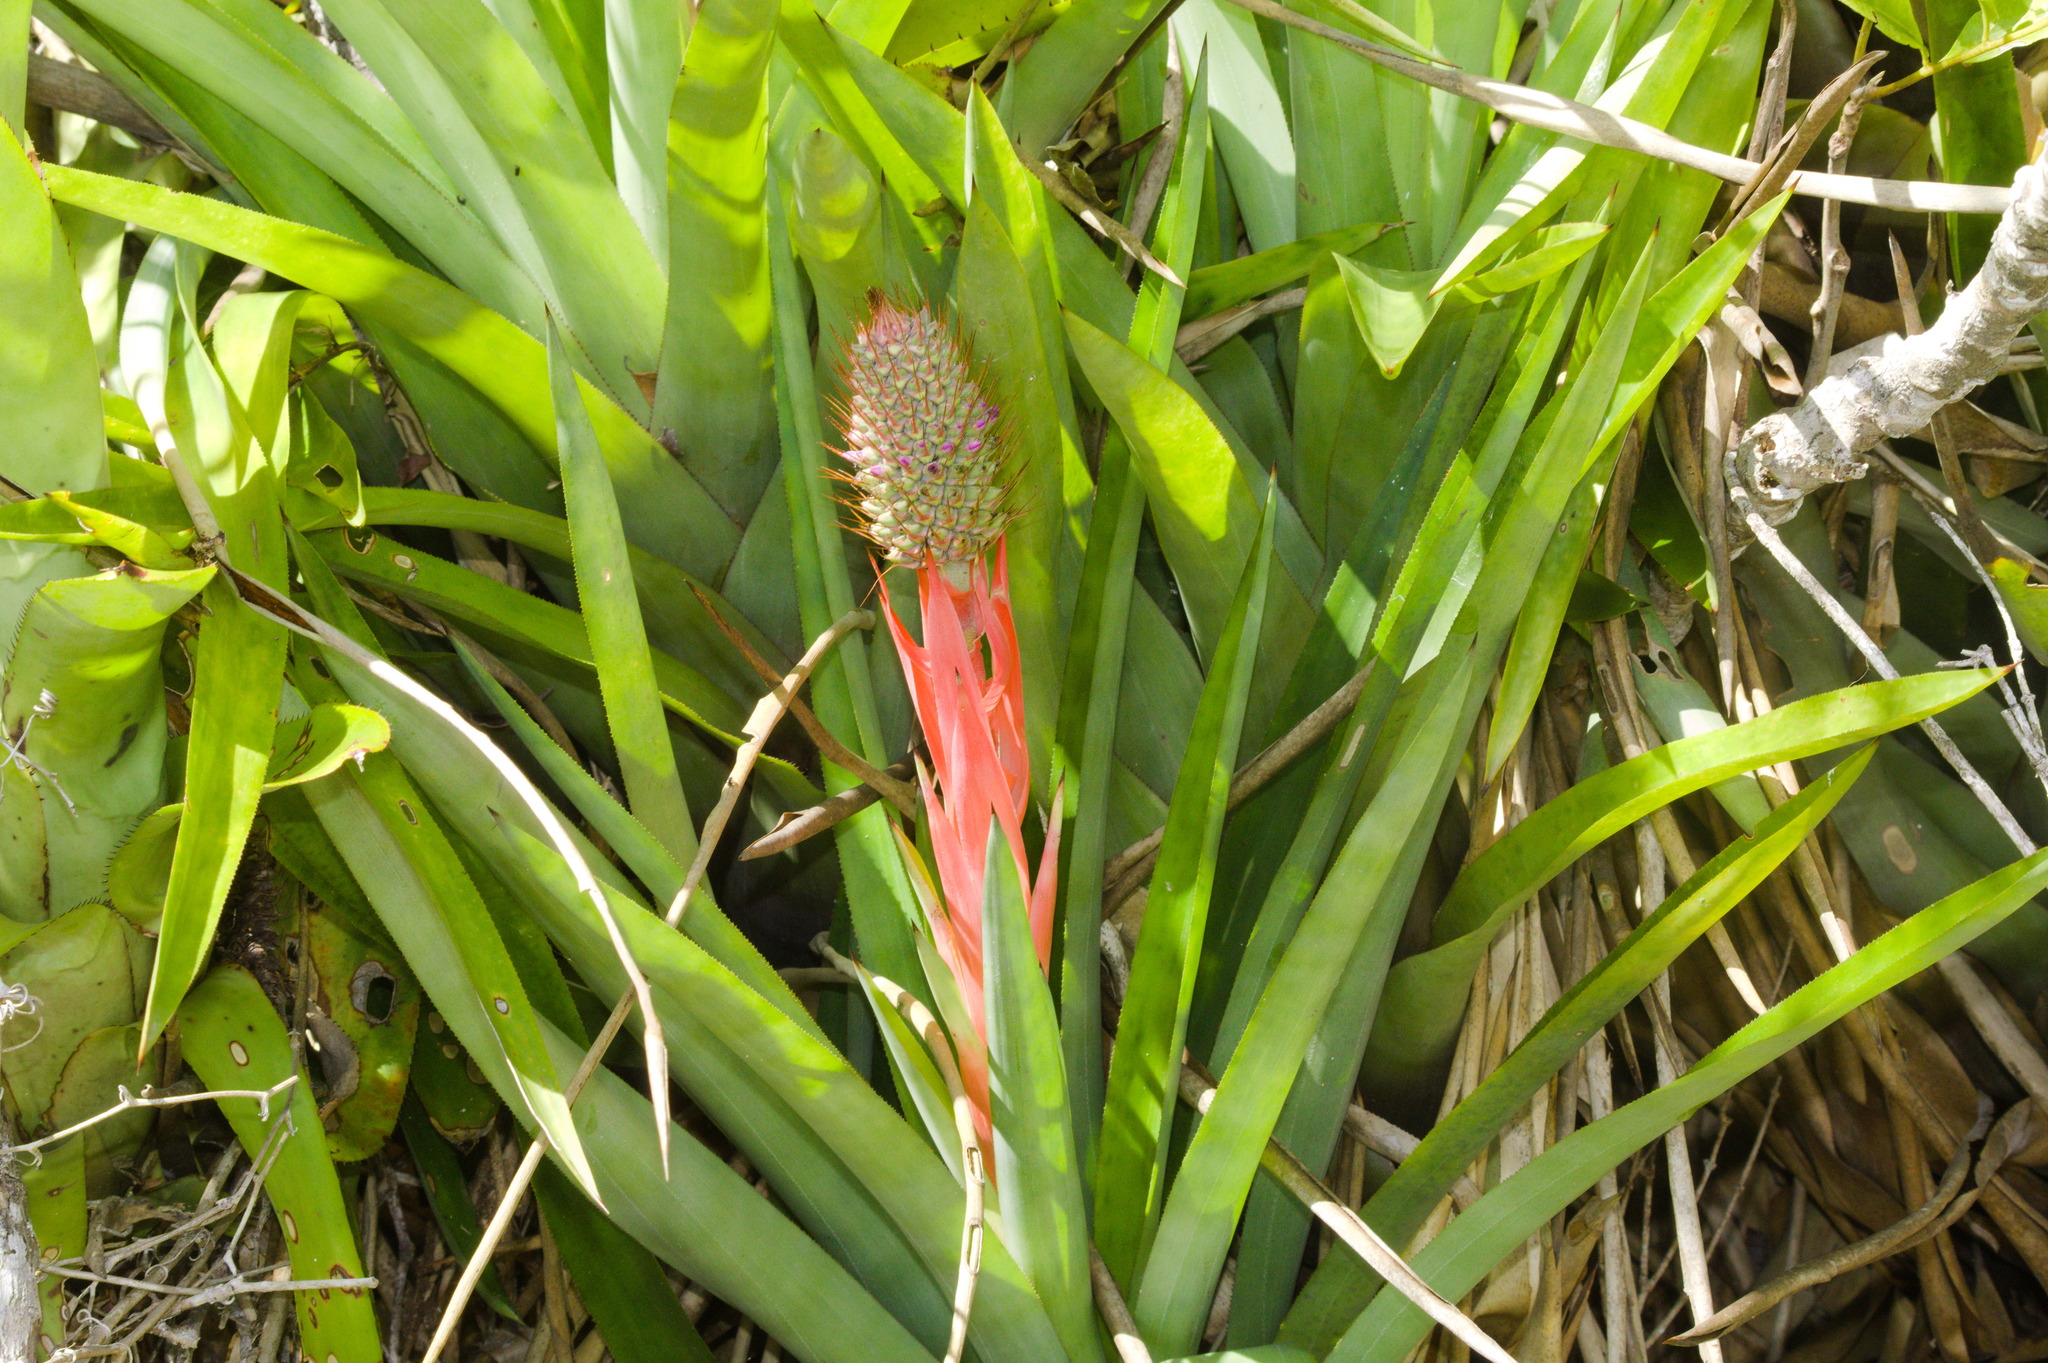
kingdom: Plantae
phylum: Tracheophyta
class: Liliopsida
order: Poales
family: Bromeliaceae
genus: Aechmea
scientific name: Aechmea ornata
